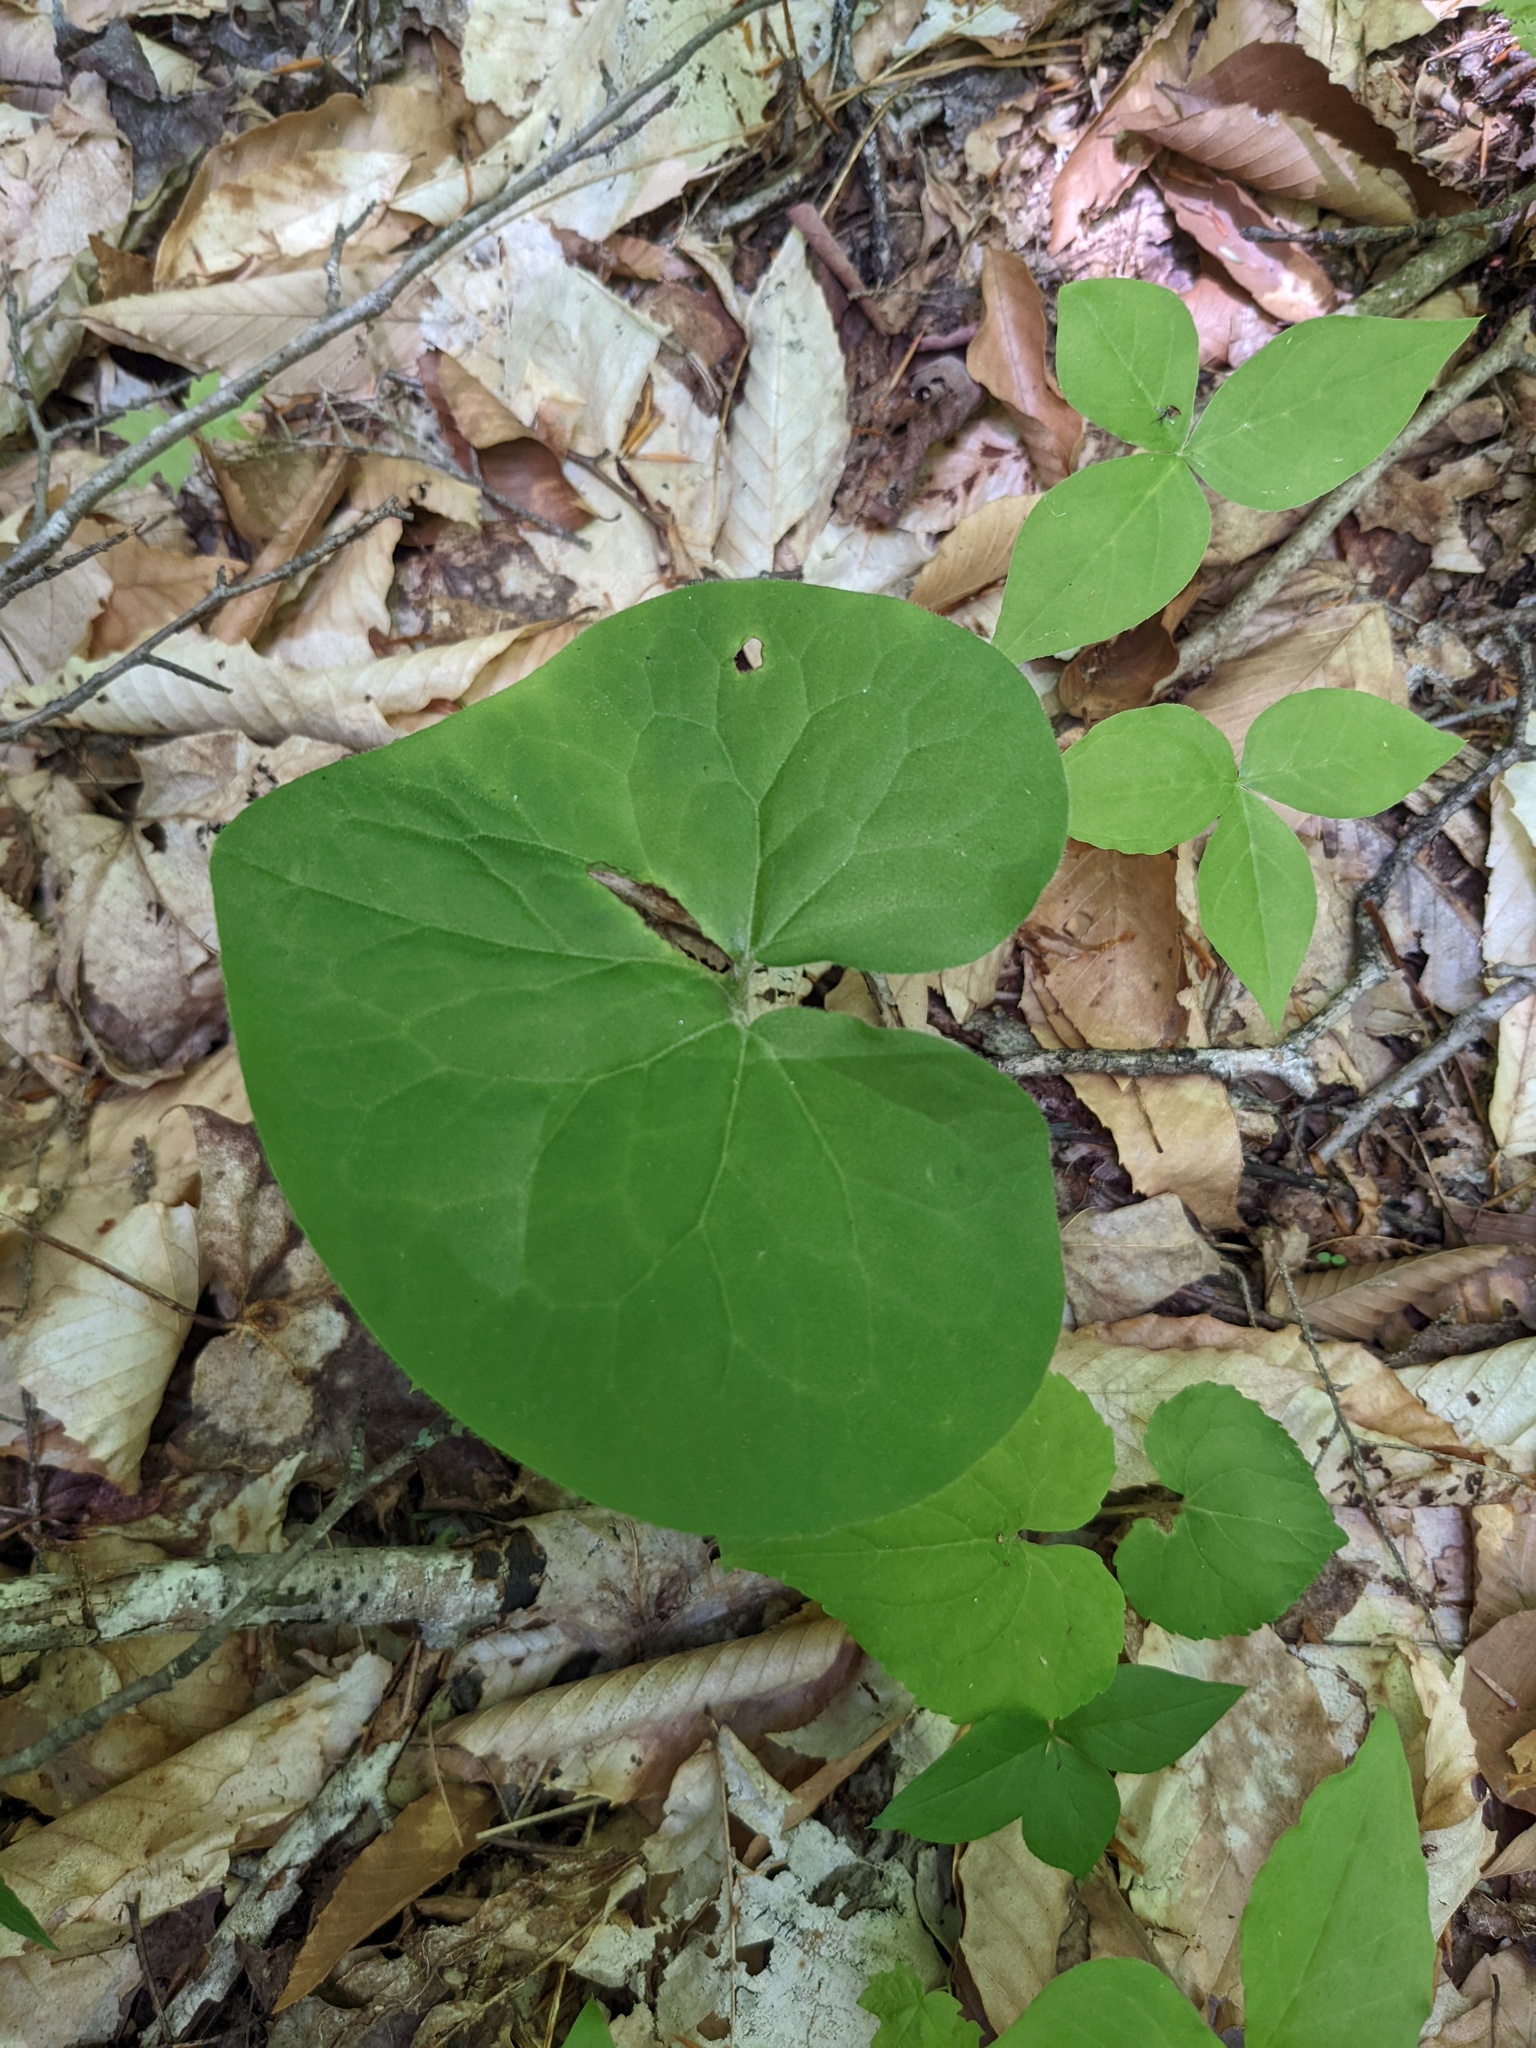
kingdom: Plantae
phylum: Tracheophyta
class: Magnoliopsida
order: Piperales
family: Aristolochiaceae
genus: Asarum
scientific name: Asarum canadense
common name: Wild ginger
